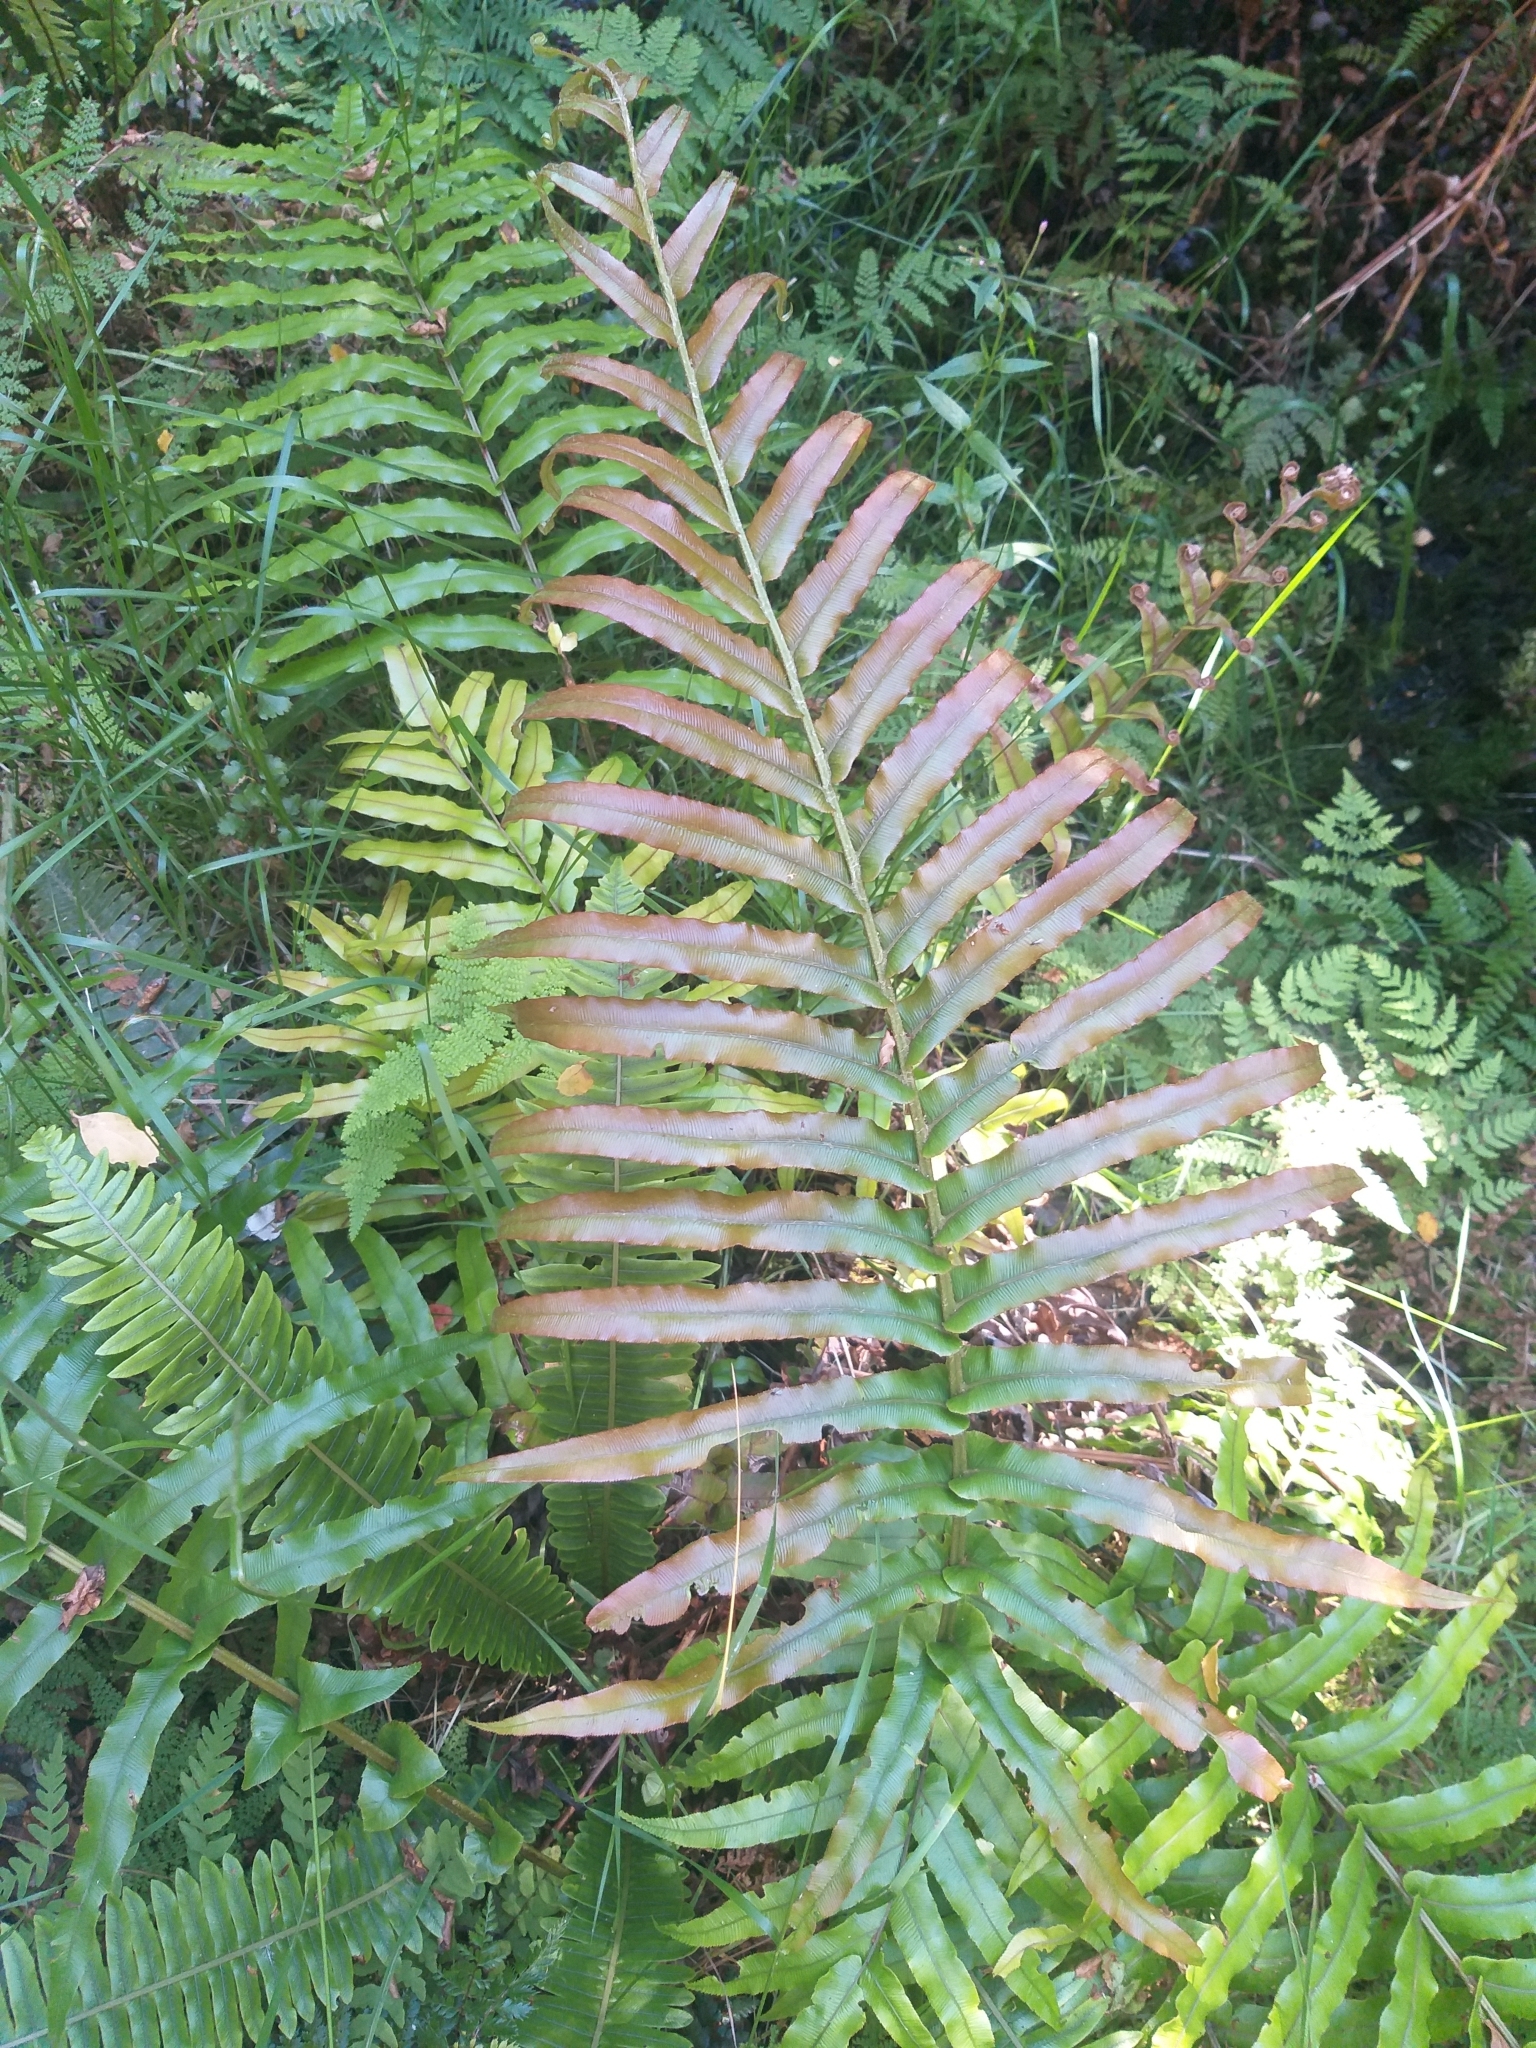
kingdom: Plantae
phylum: Tracheophyta
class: Polypodiopsida
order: Polypodiales
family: Blechnaceae
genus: Parablechnum
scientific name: Parablechnum novae-zelandiae
